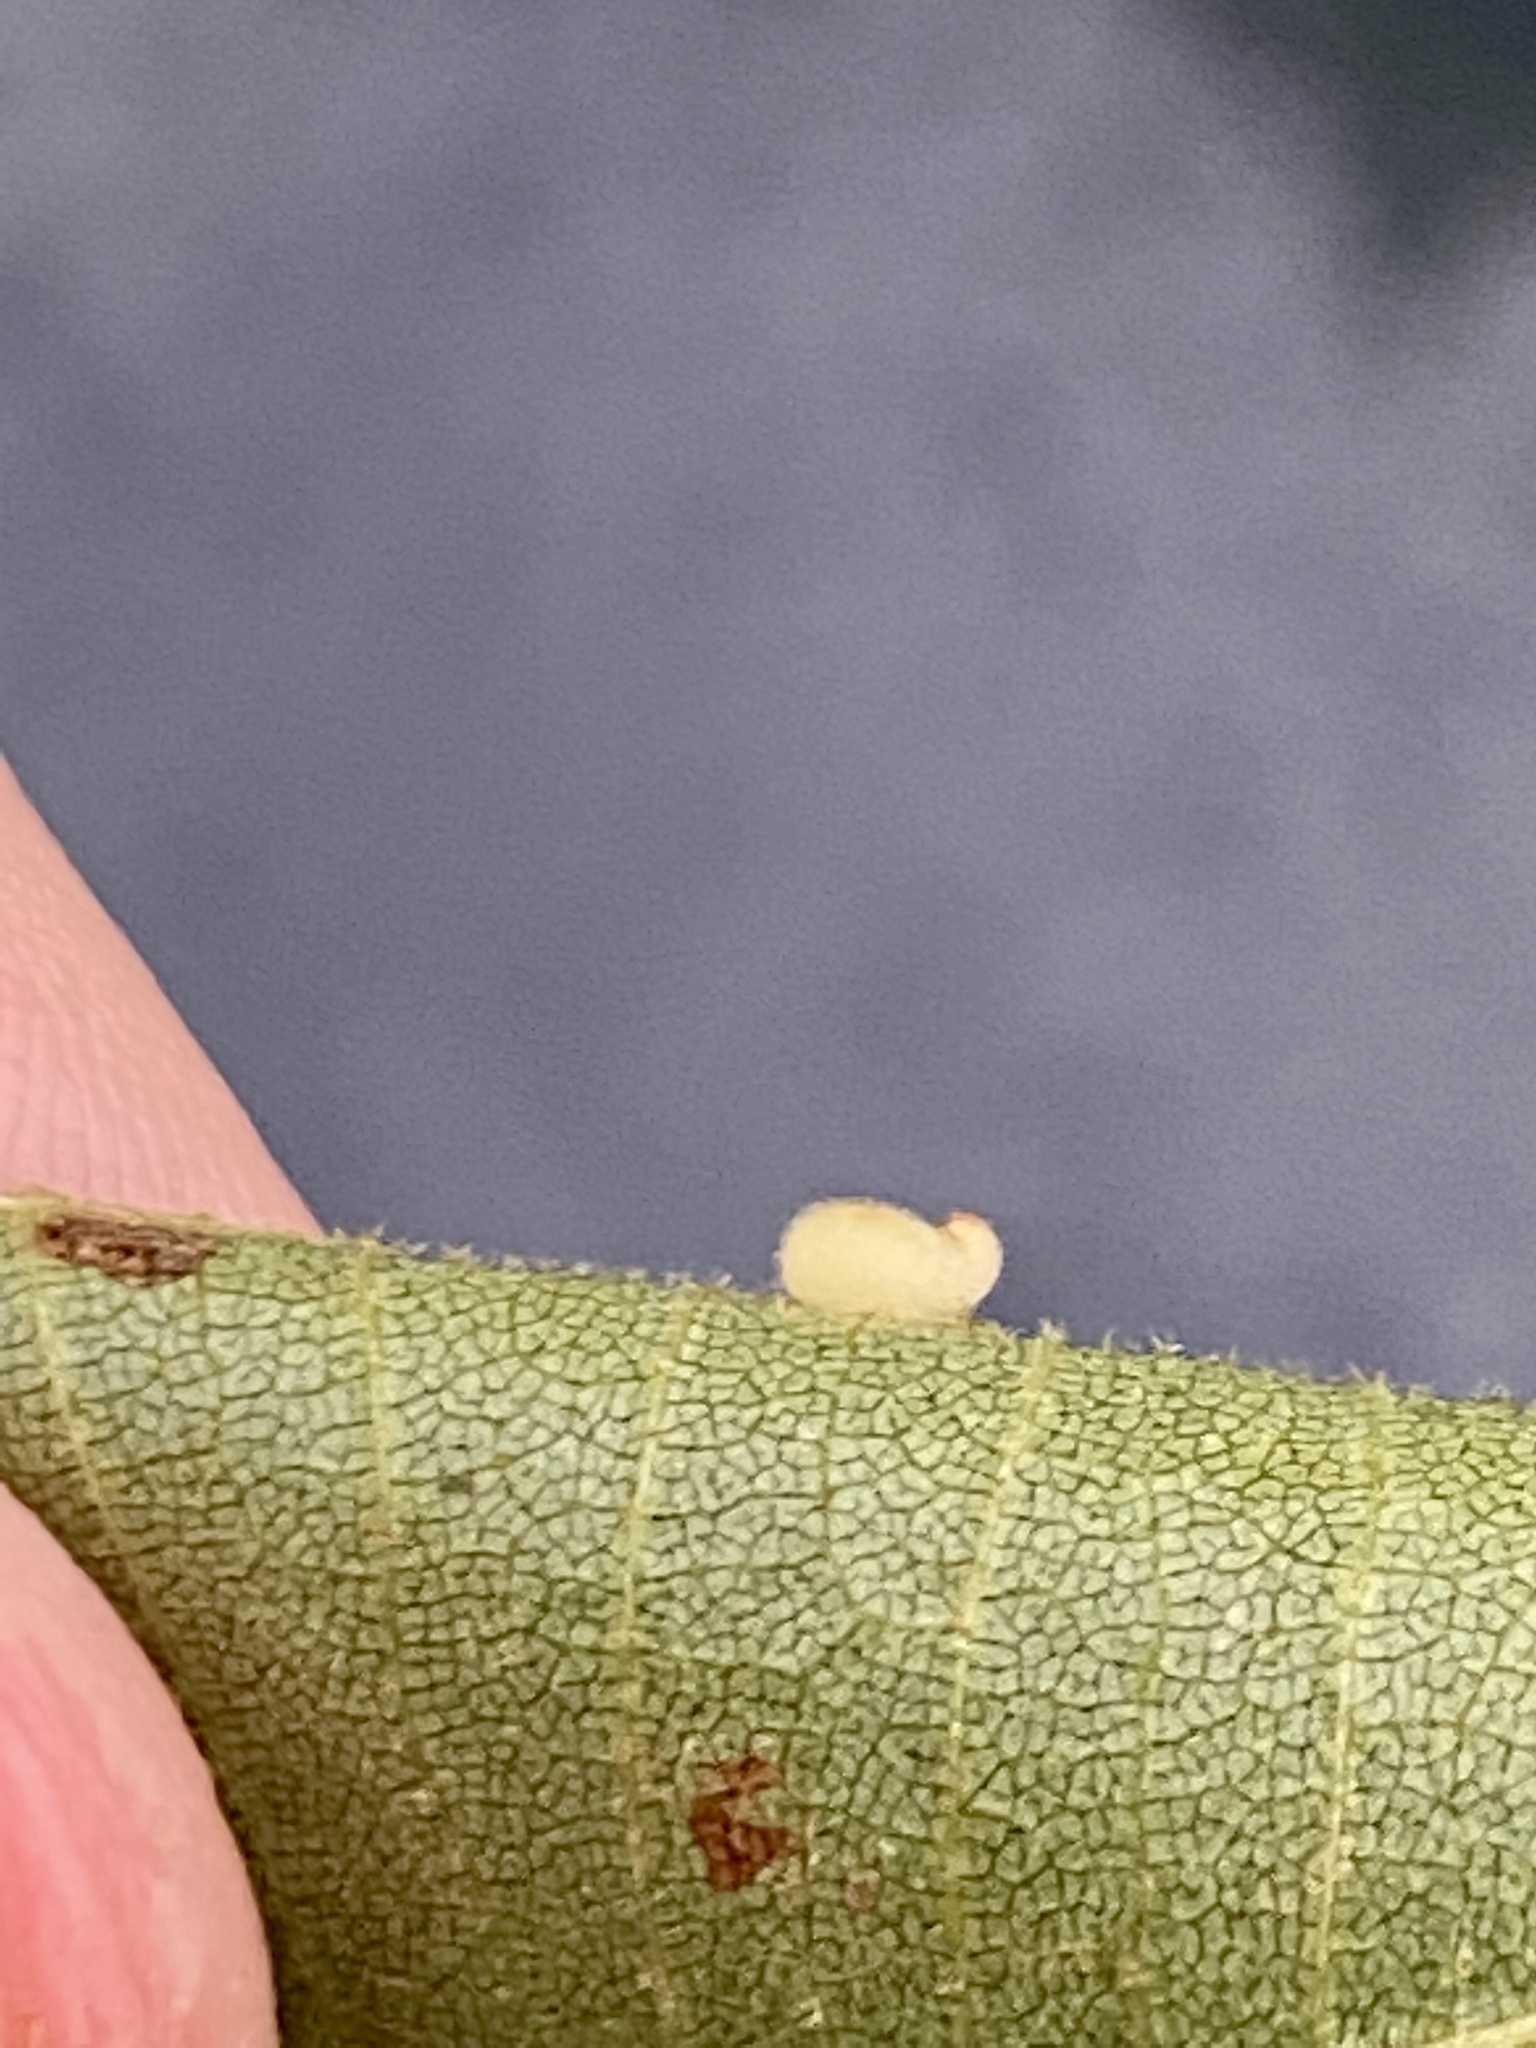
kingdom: Animalia
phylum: Arthropoda
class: Insecta
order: Diptera
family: Cecidomyiidae
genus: Caryomyia
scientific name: Caryomyia eumaris
